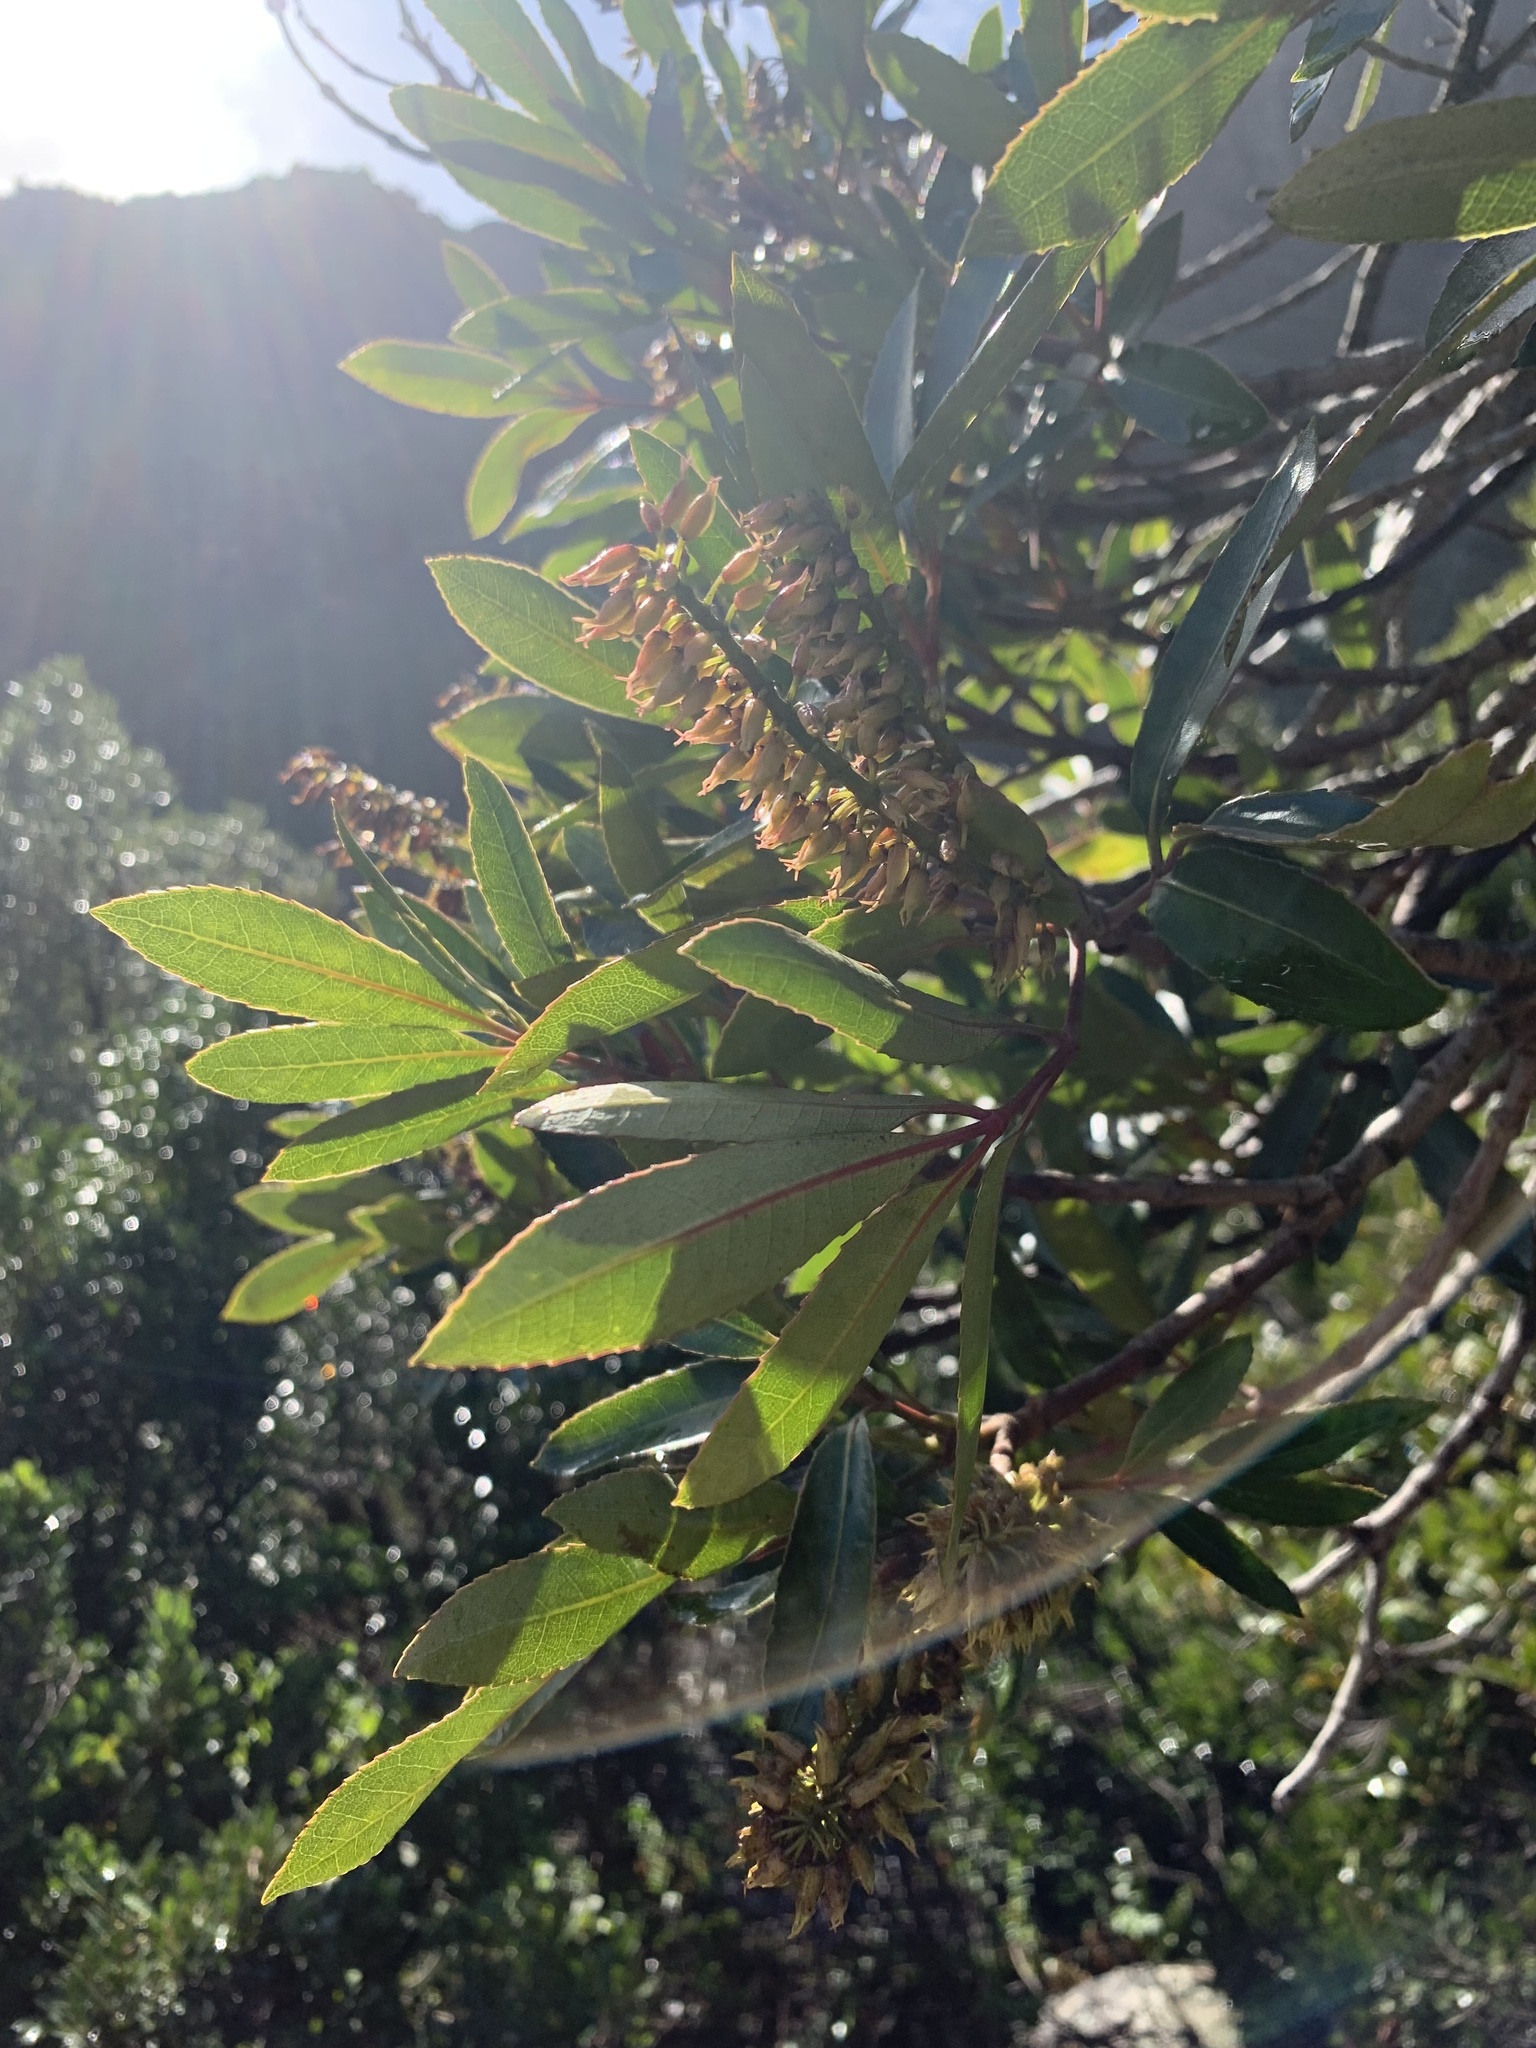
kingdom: Plantae
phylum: Tracheophyta
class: Magnoliopsida
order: Oxalidales
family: Cunoniaceae
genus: Cunonia
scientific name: Cunonia capensis
